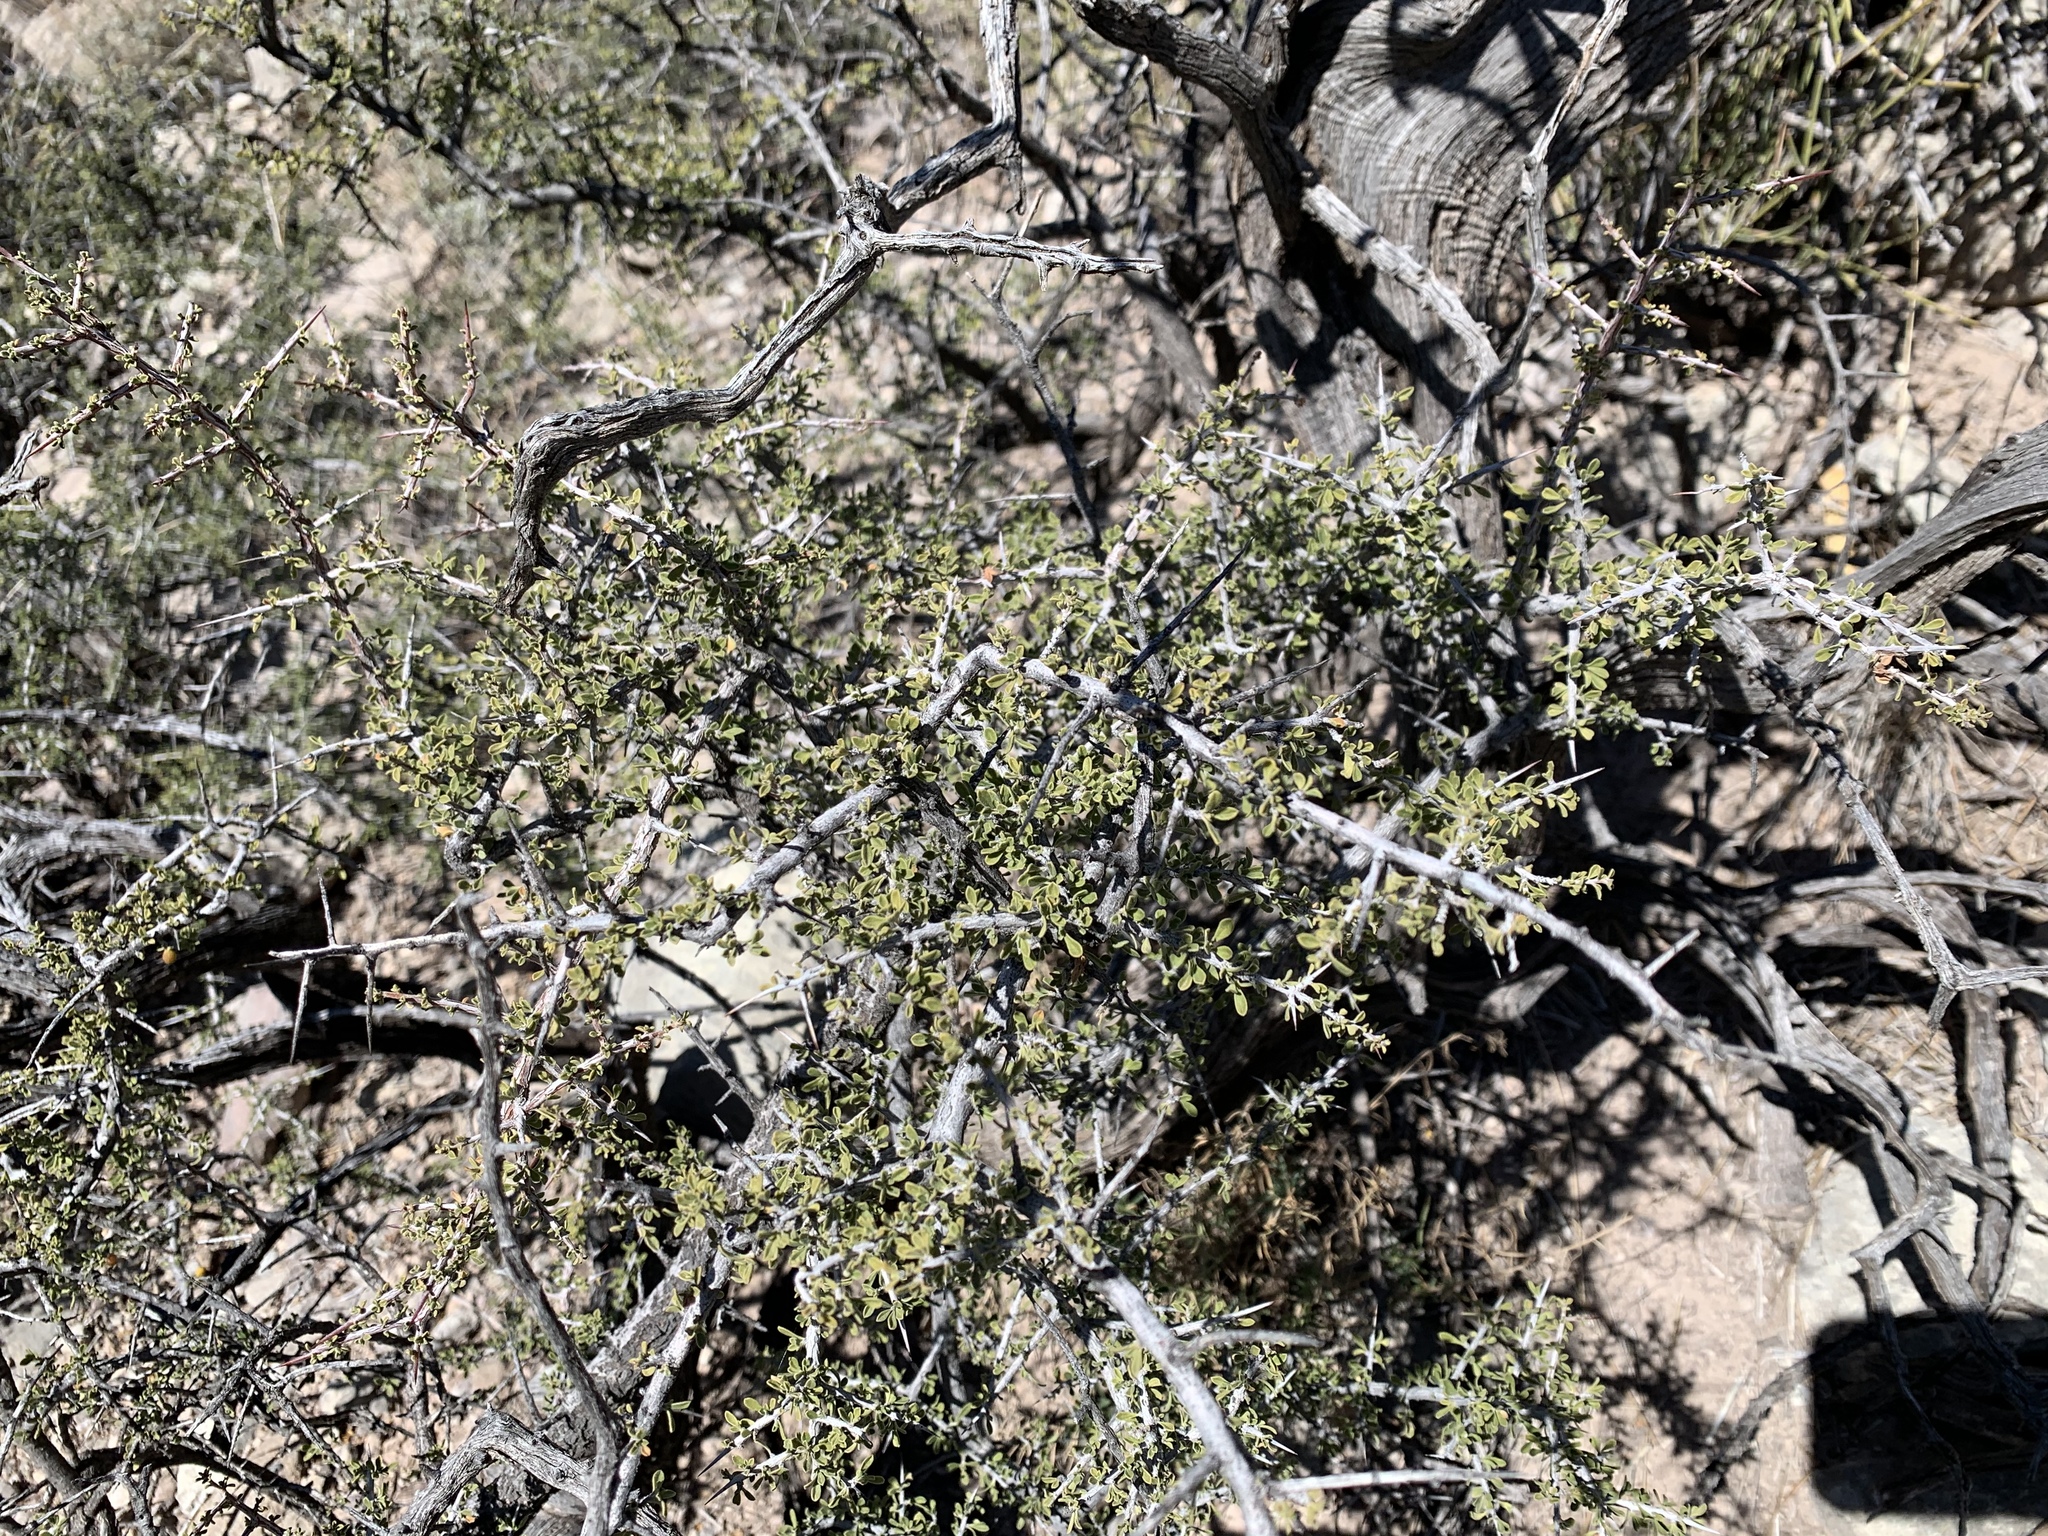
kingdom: Plantae
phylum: Tracheophyta
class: Magnoliopsida
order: Rosales
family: Rhamnaceae
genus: Condalia
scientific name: Condalia warnockii
